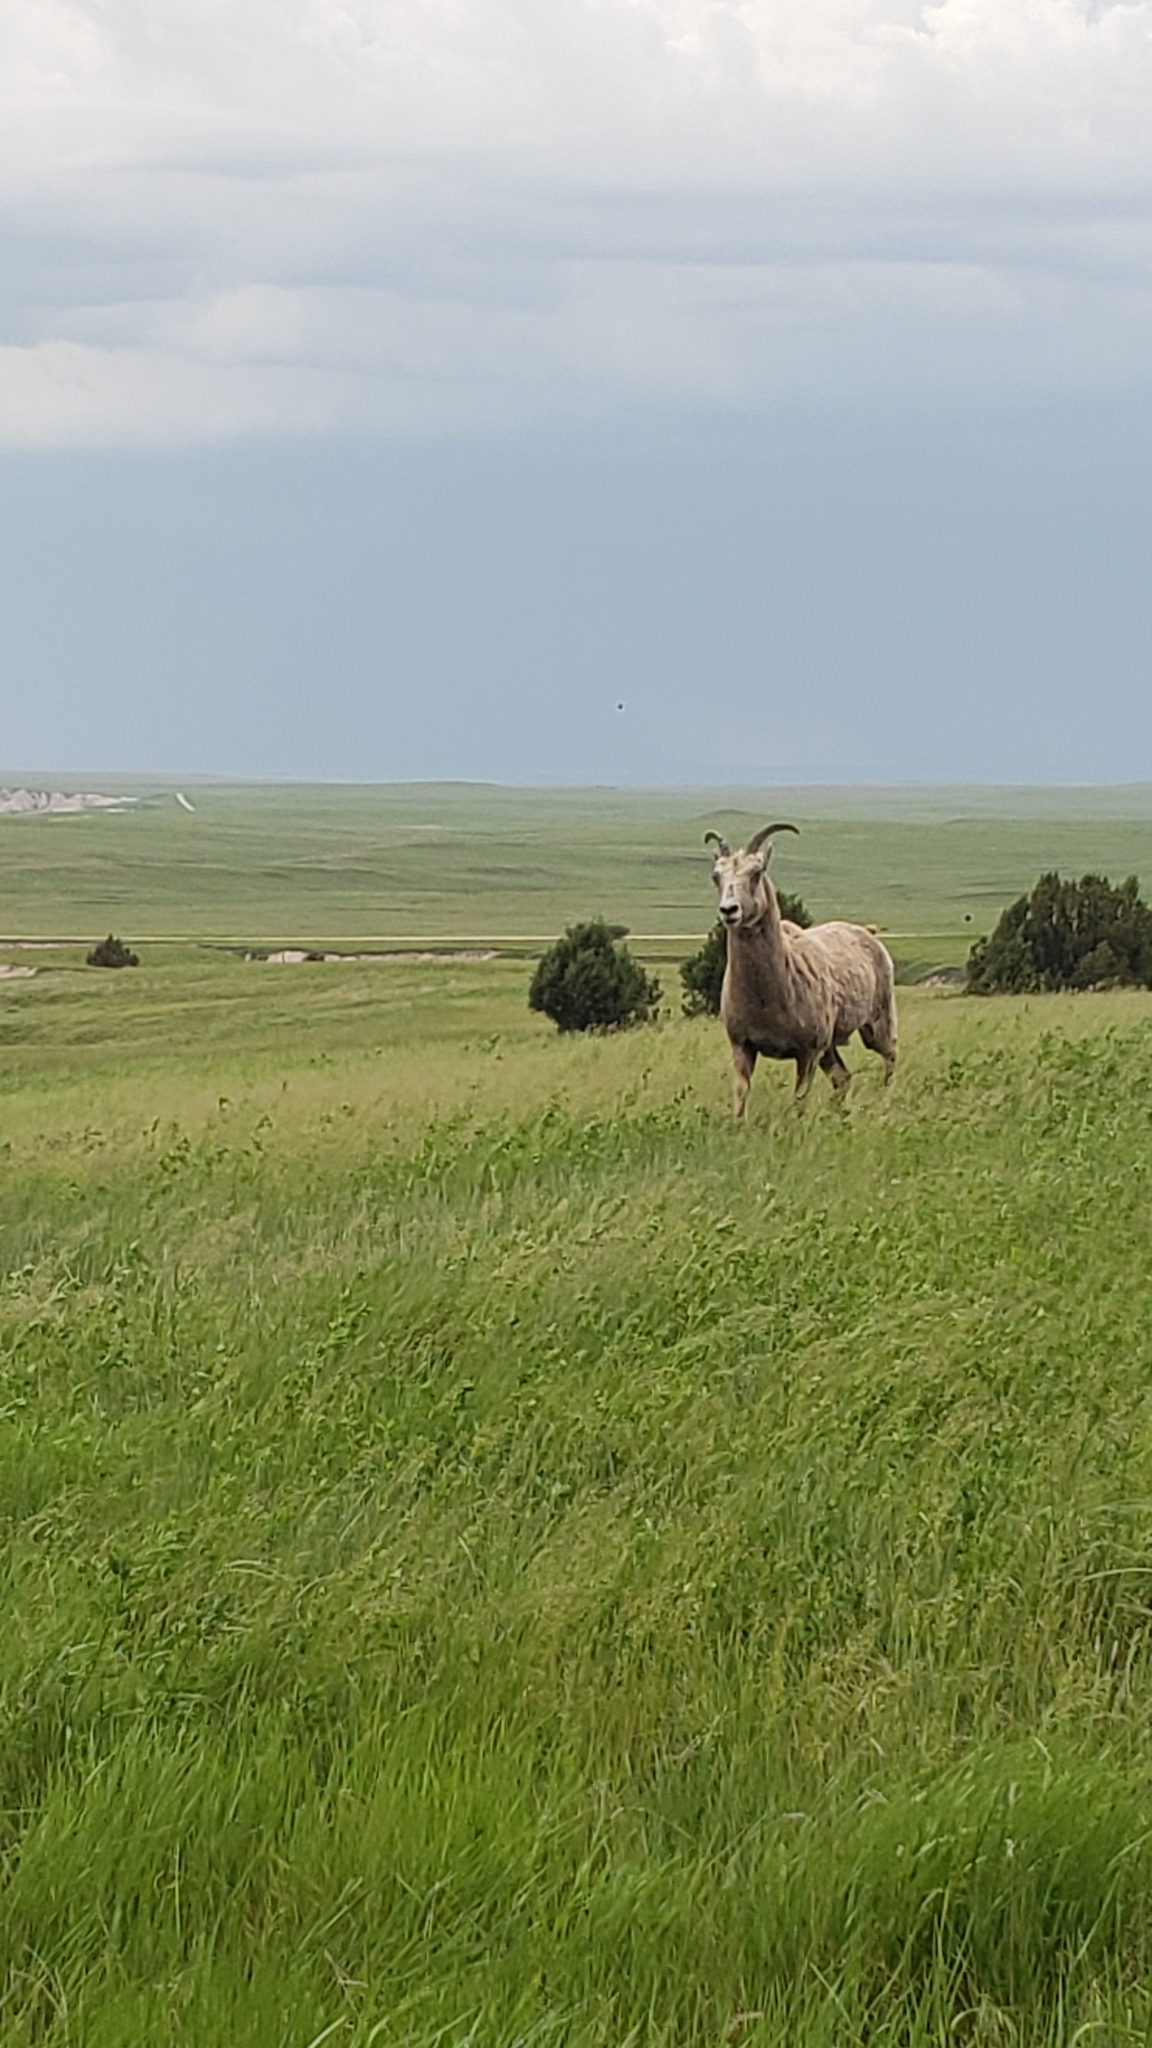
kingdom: Animalia
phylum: Chordata
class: Mammalia
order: Artiodactyla
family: Bovidae
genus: Ovis
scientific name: Ovis canadensis
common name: Bighorn sheep
